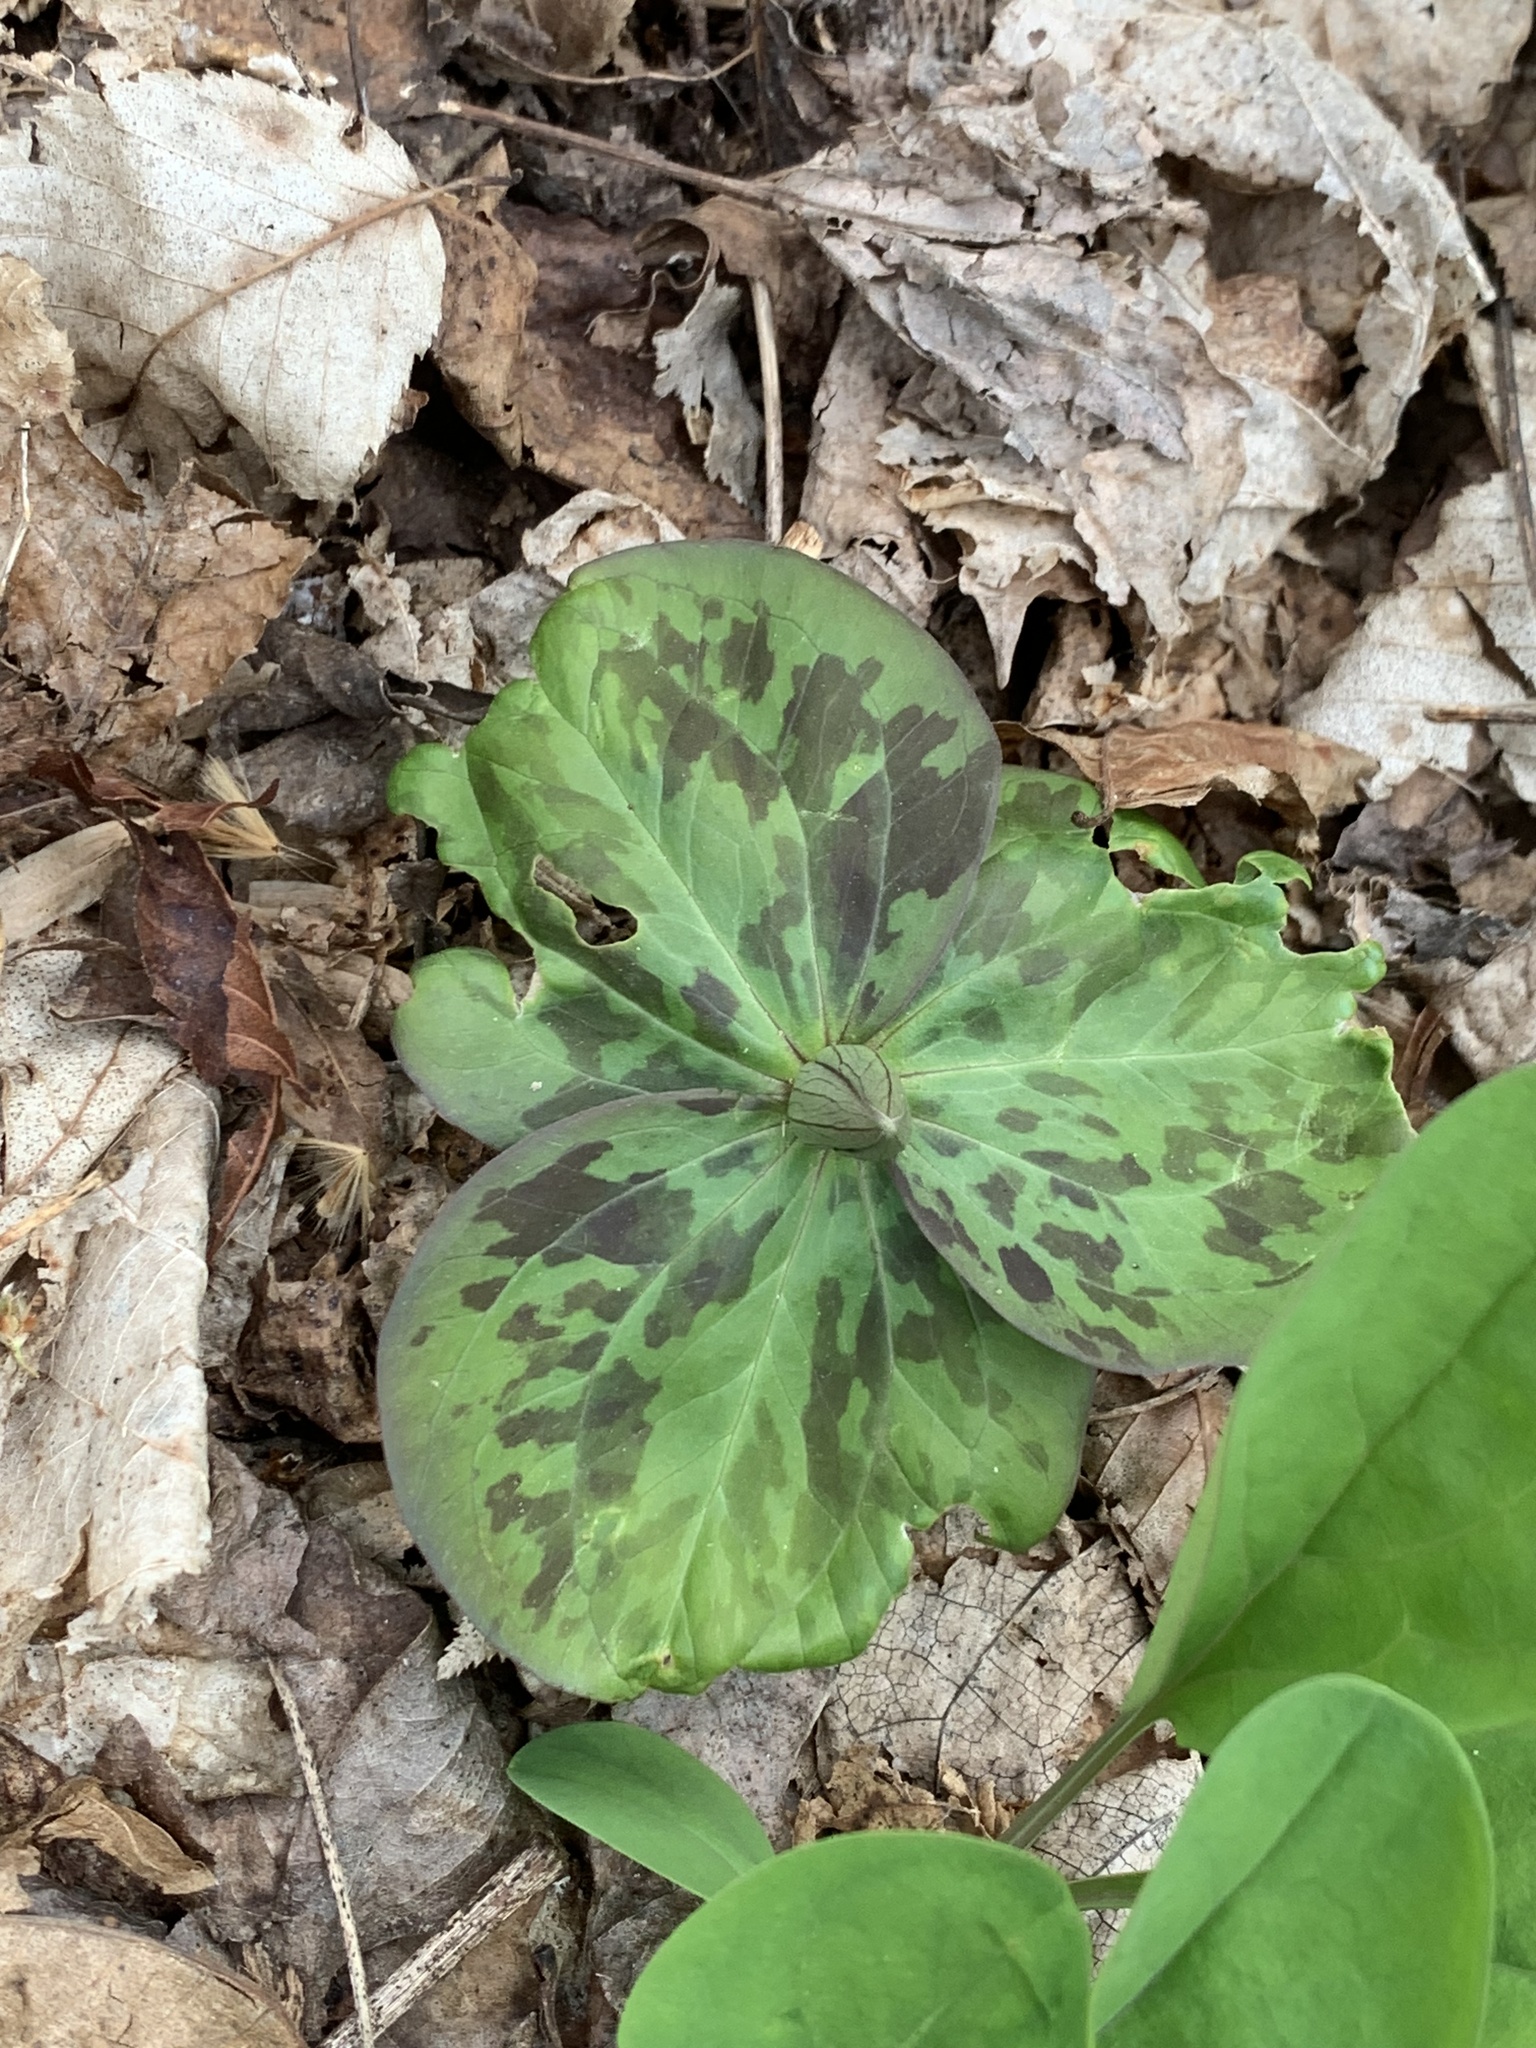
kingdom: Plantae
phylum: Tracheophyta
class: Liliopsida
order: Liliales
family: Melanthiaceae
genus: Trillium
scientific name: Trillium sessile
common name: Sessile trillium
